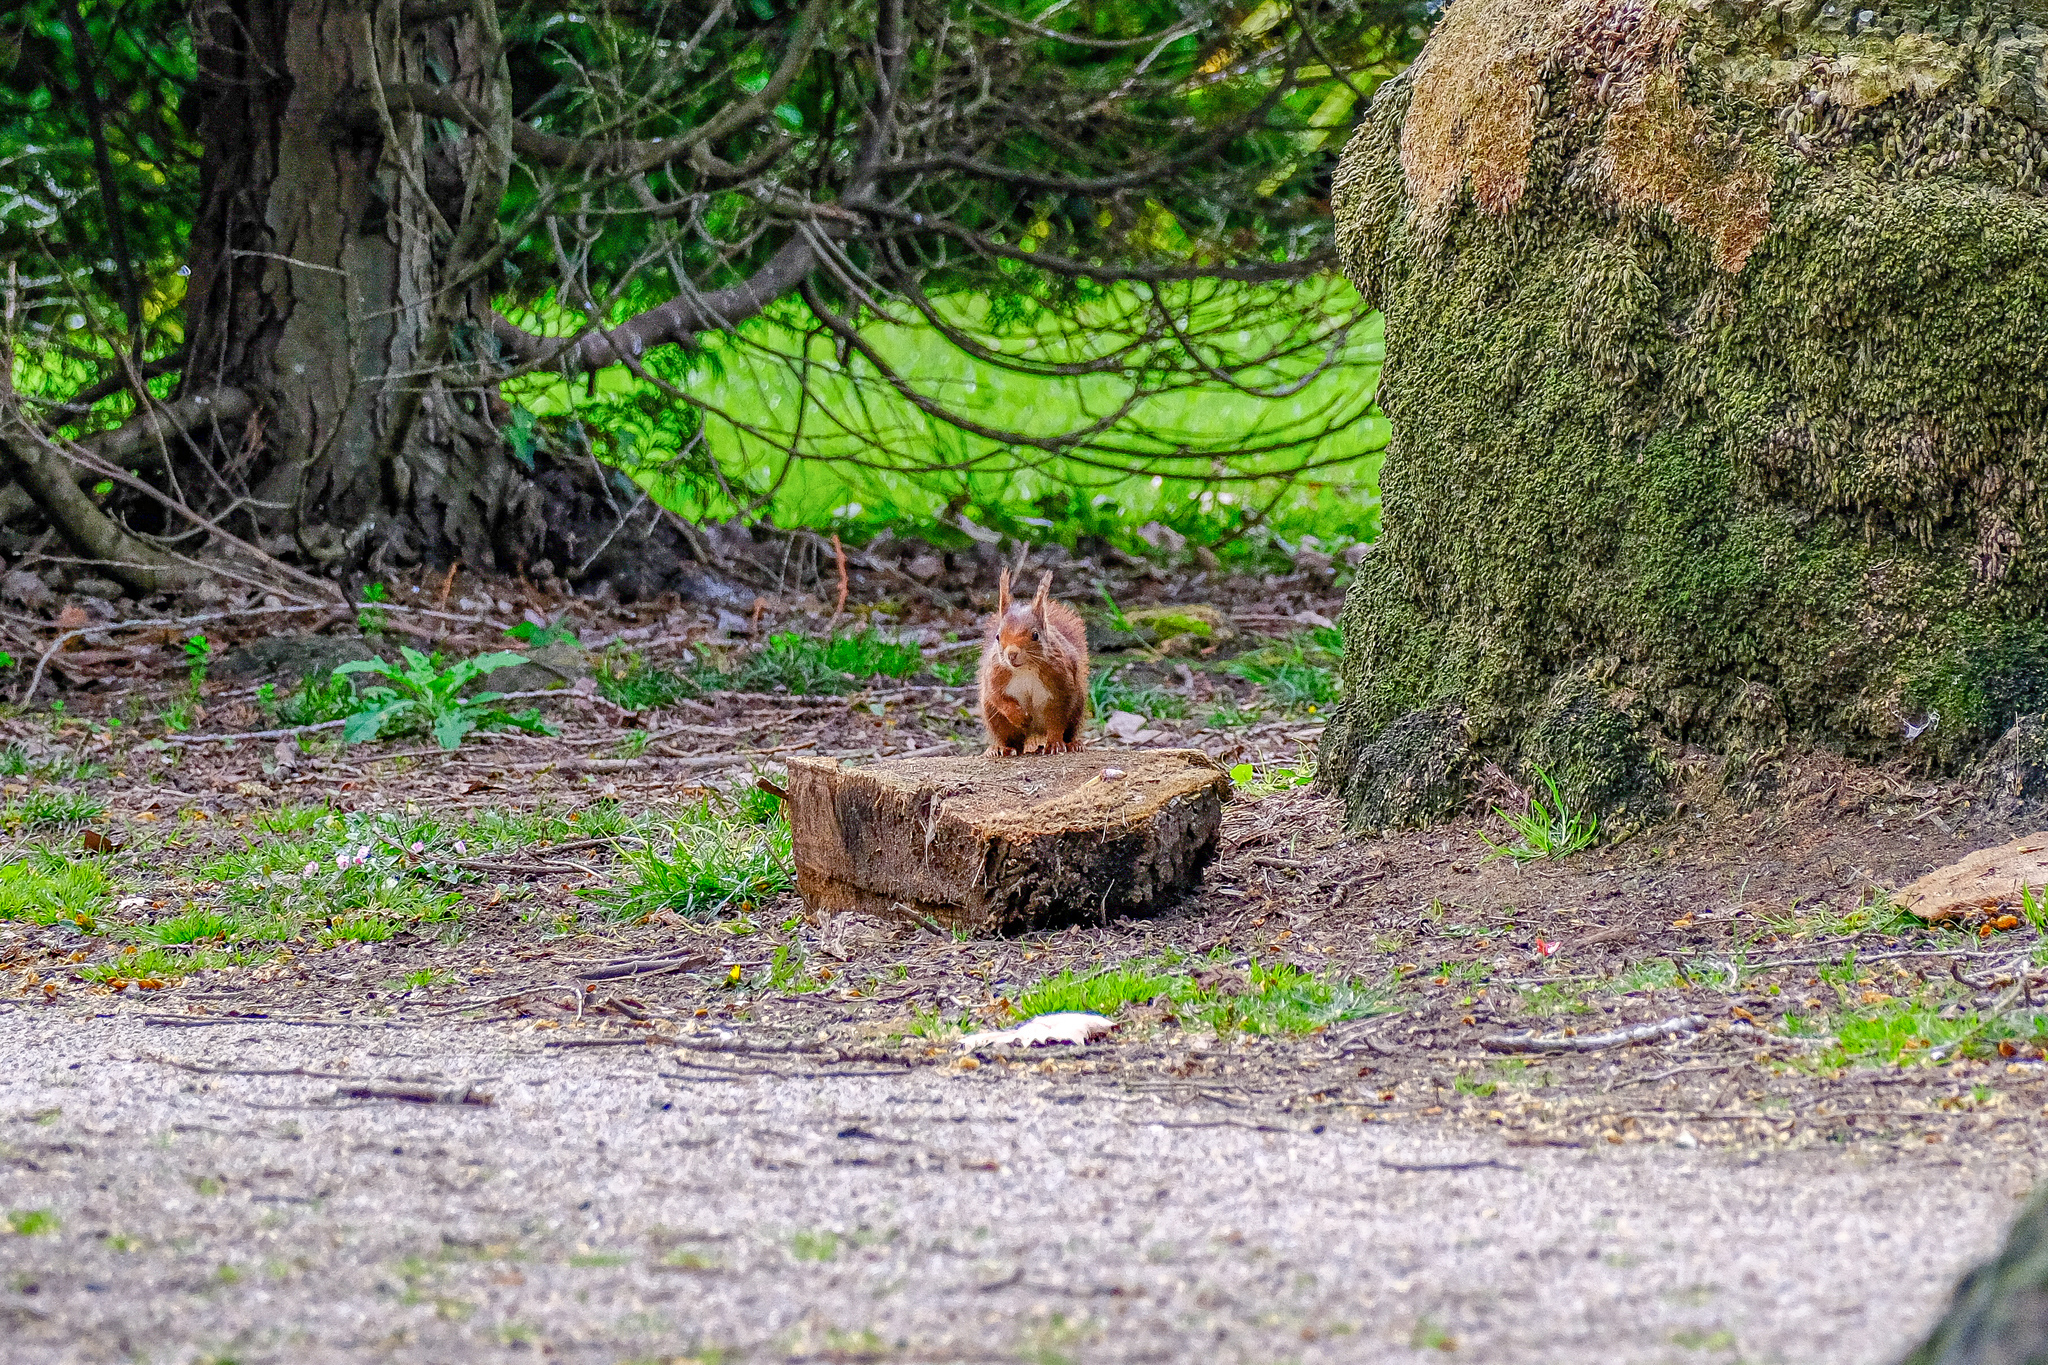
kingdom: Animalia
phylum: Chordata
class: Mammalia
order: Rodentia
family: Sciuridae
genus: Sciurus
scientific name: Sciurus vulgaris
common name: Eurasian red squirrel
